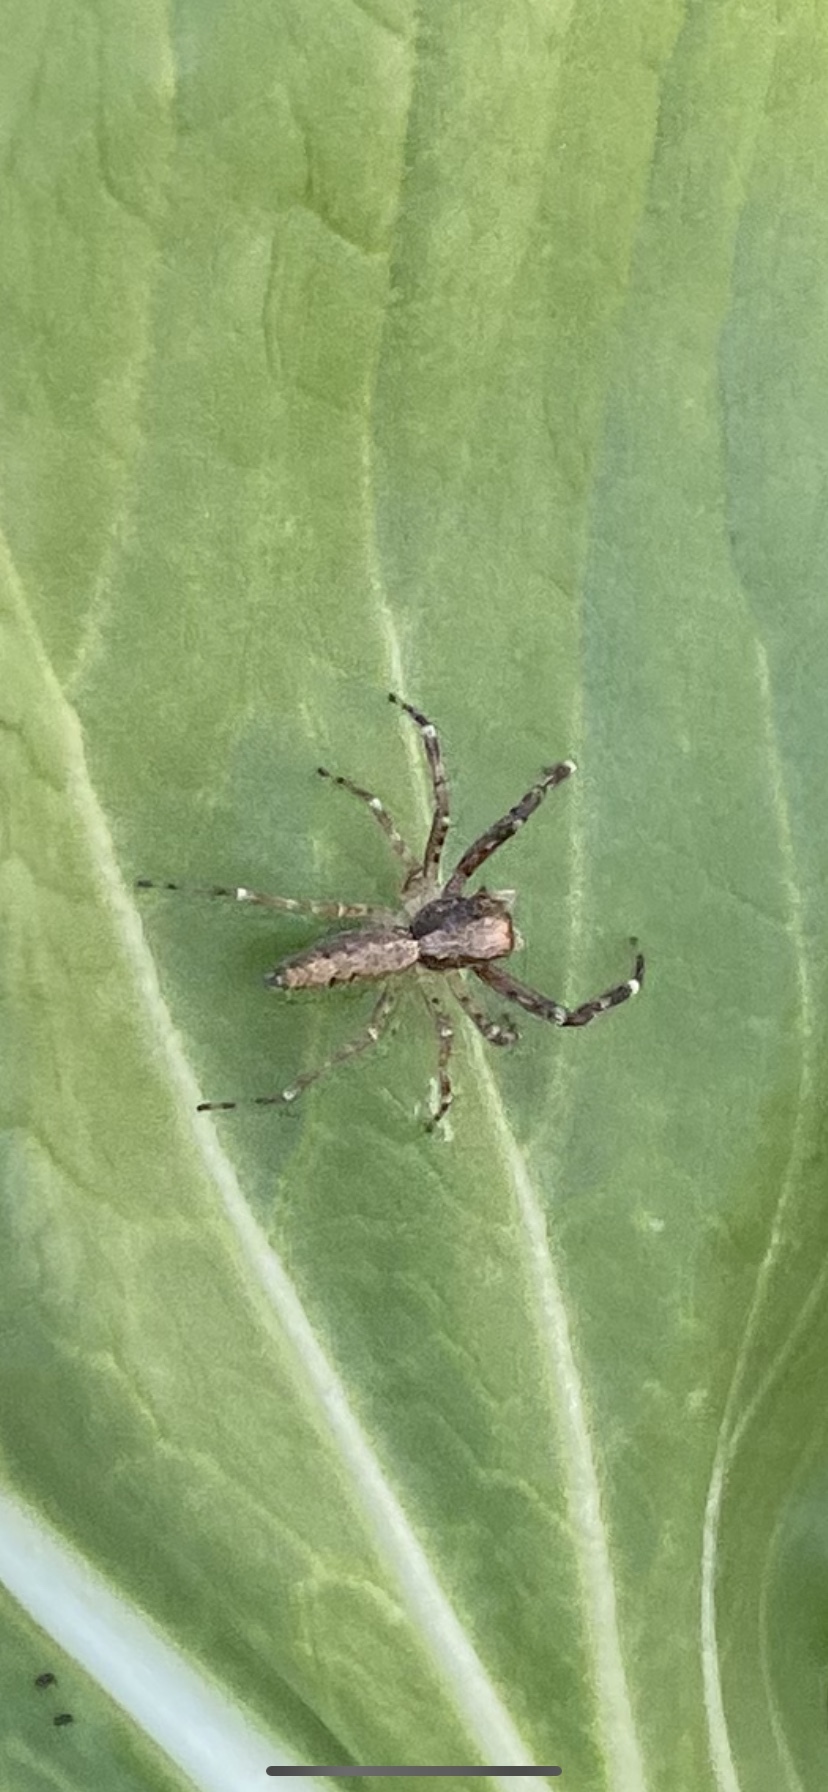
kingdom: Animalia
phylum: Arthropoda
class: Arachnida
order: Araneae
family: Salticidae
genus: Helpis
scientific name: Helpis minitabunda
